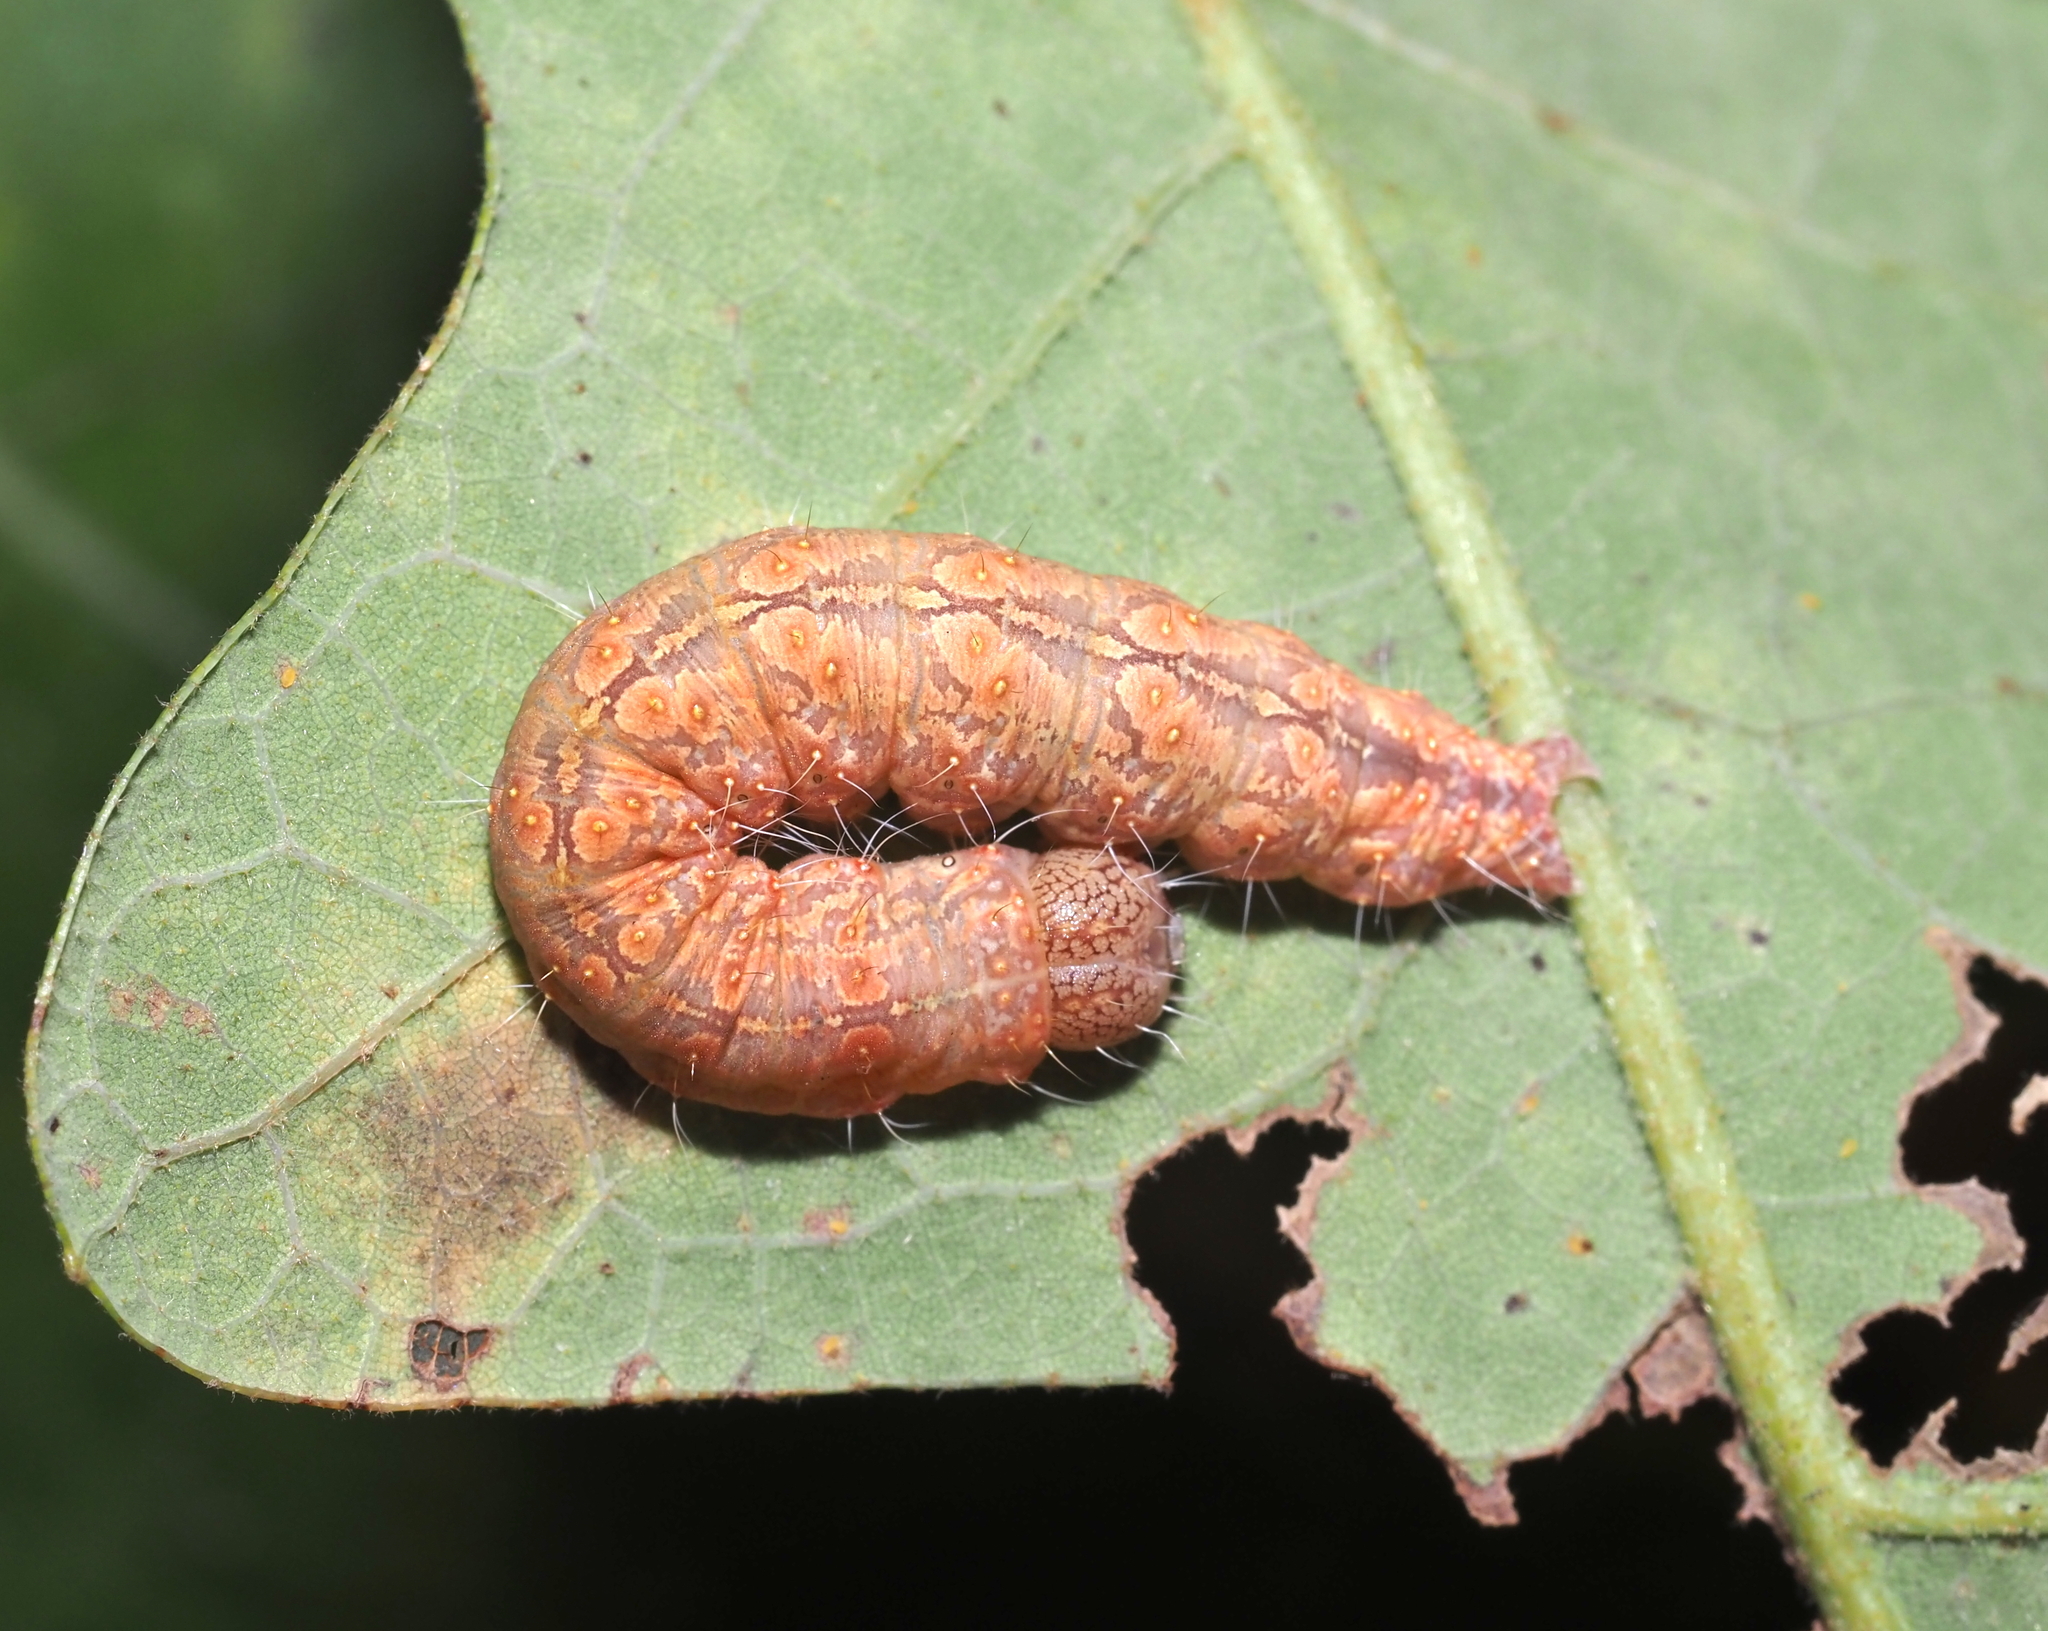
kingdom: Animalia
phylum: Arthropoda
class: Insecta
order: Lepidoptera
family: Noctuidae
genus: Acronicta
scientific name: Acronicta increta
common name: Eclipsed oak dagger
